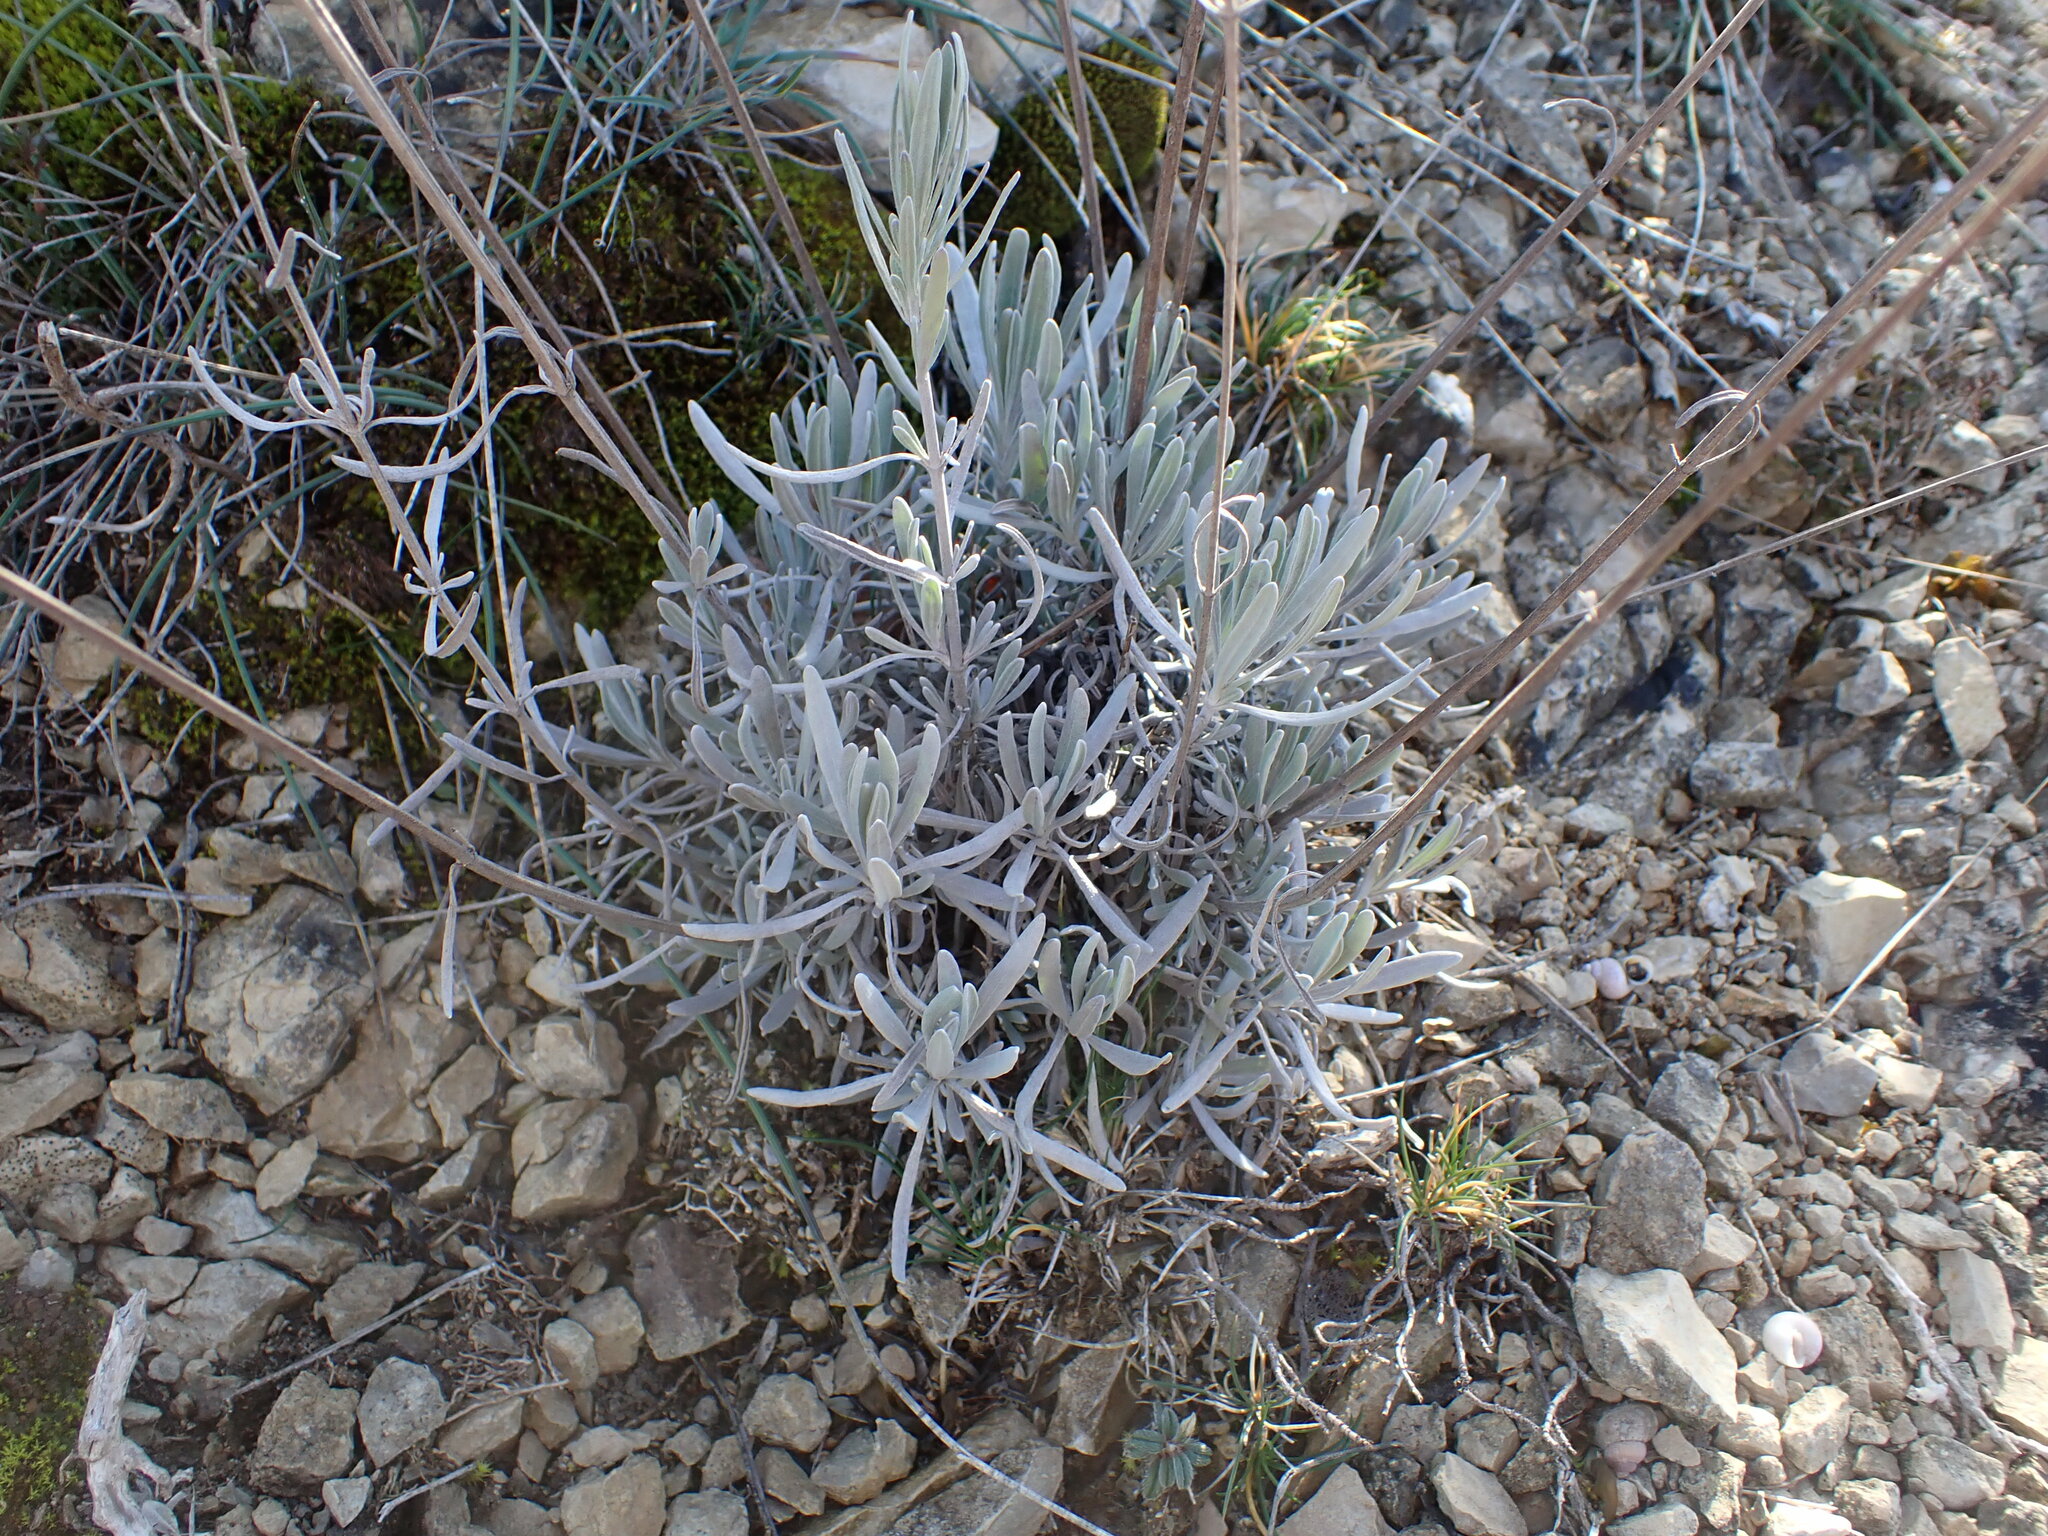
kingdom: Plantae
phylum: Tracheophyta
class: Magnoliopsida
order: Lamiales
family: Lamiaceae
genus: Lavandula
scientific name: Lavandula latifolia
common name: Spike lavendar
